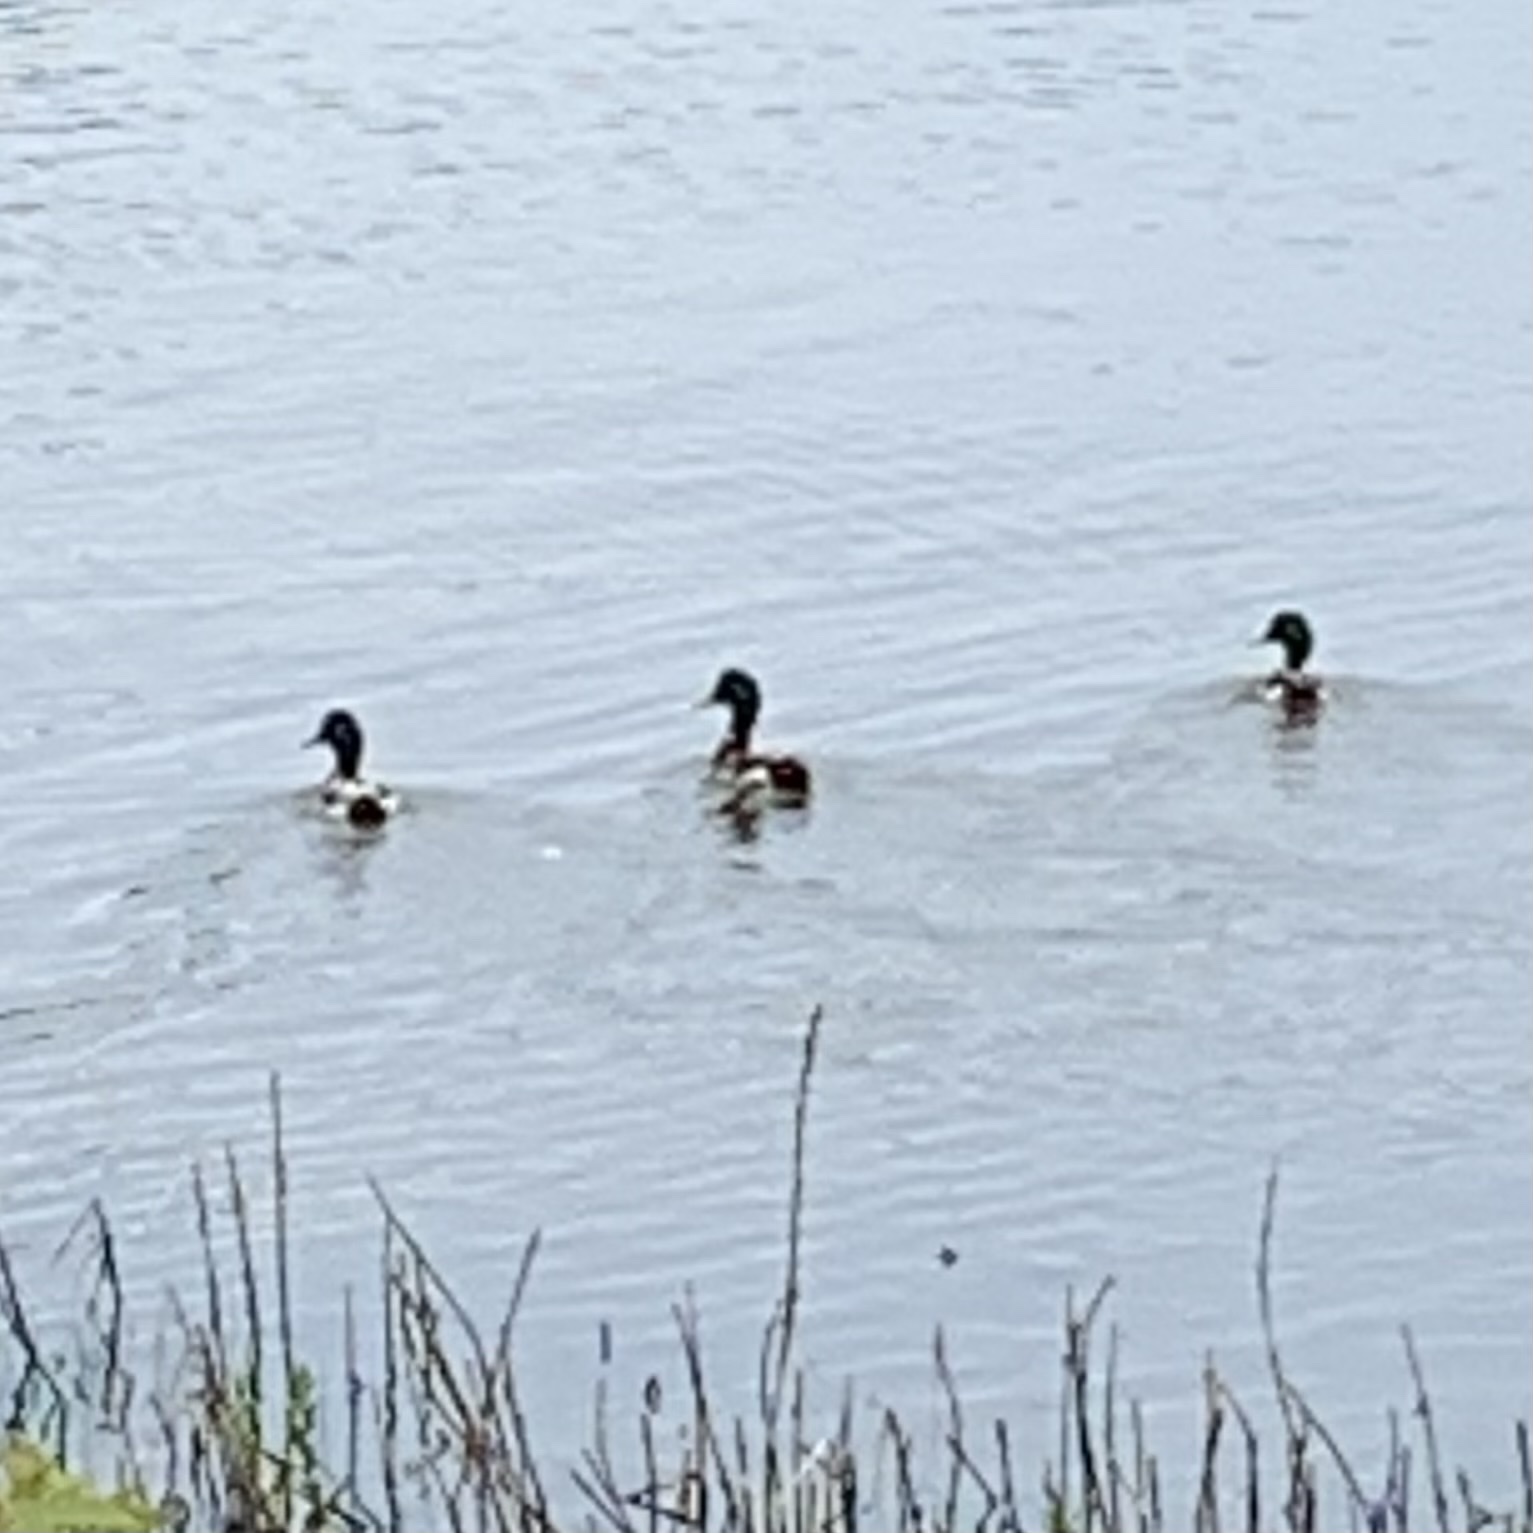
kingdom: Animalia
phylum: Chordata
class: Aves
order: Anseriformes
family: Anatidae
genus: Anas
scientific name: Anas platyrhynchos
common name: Mallard
